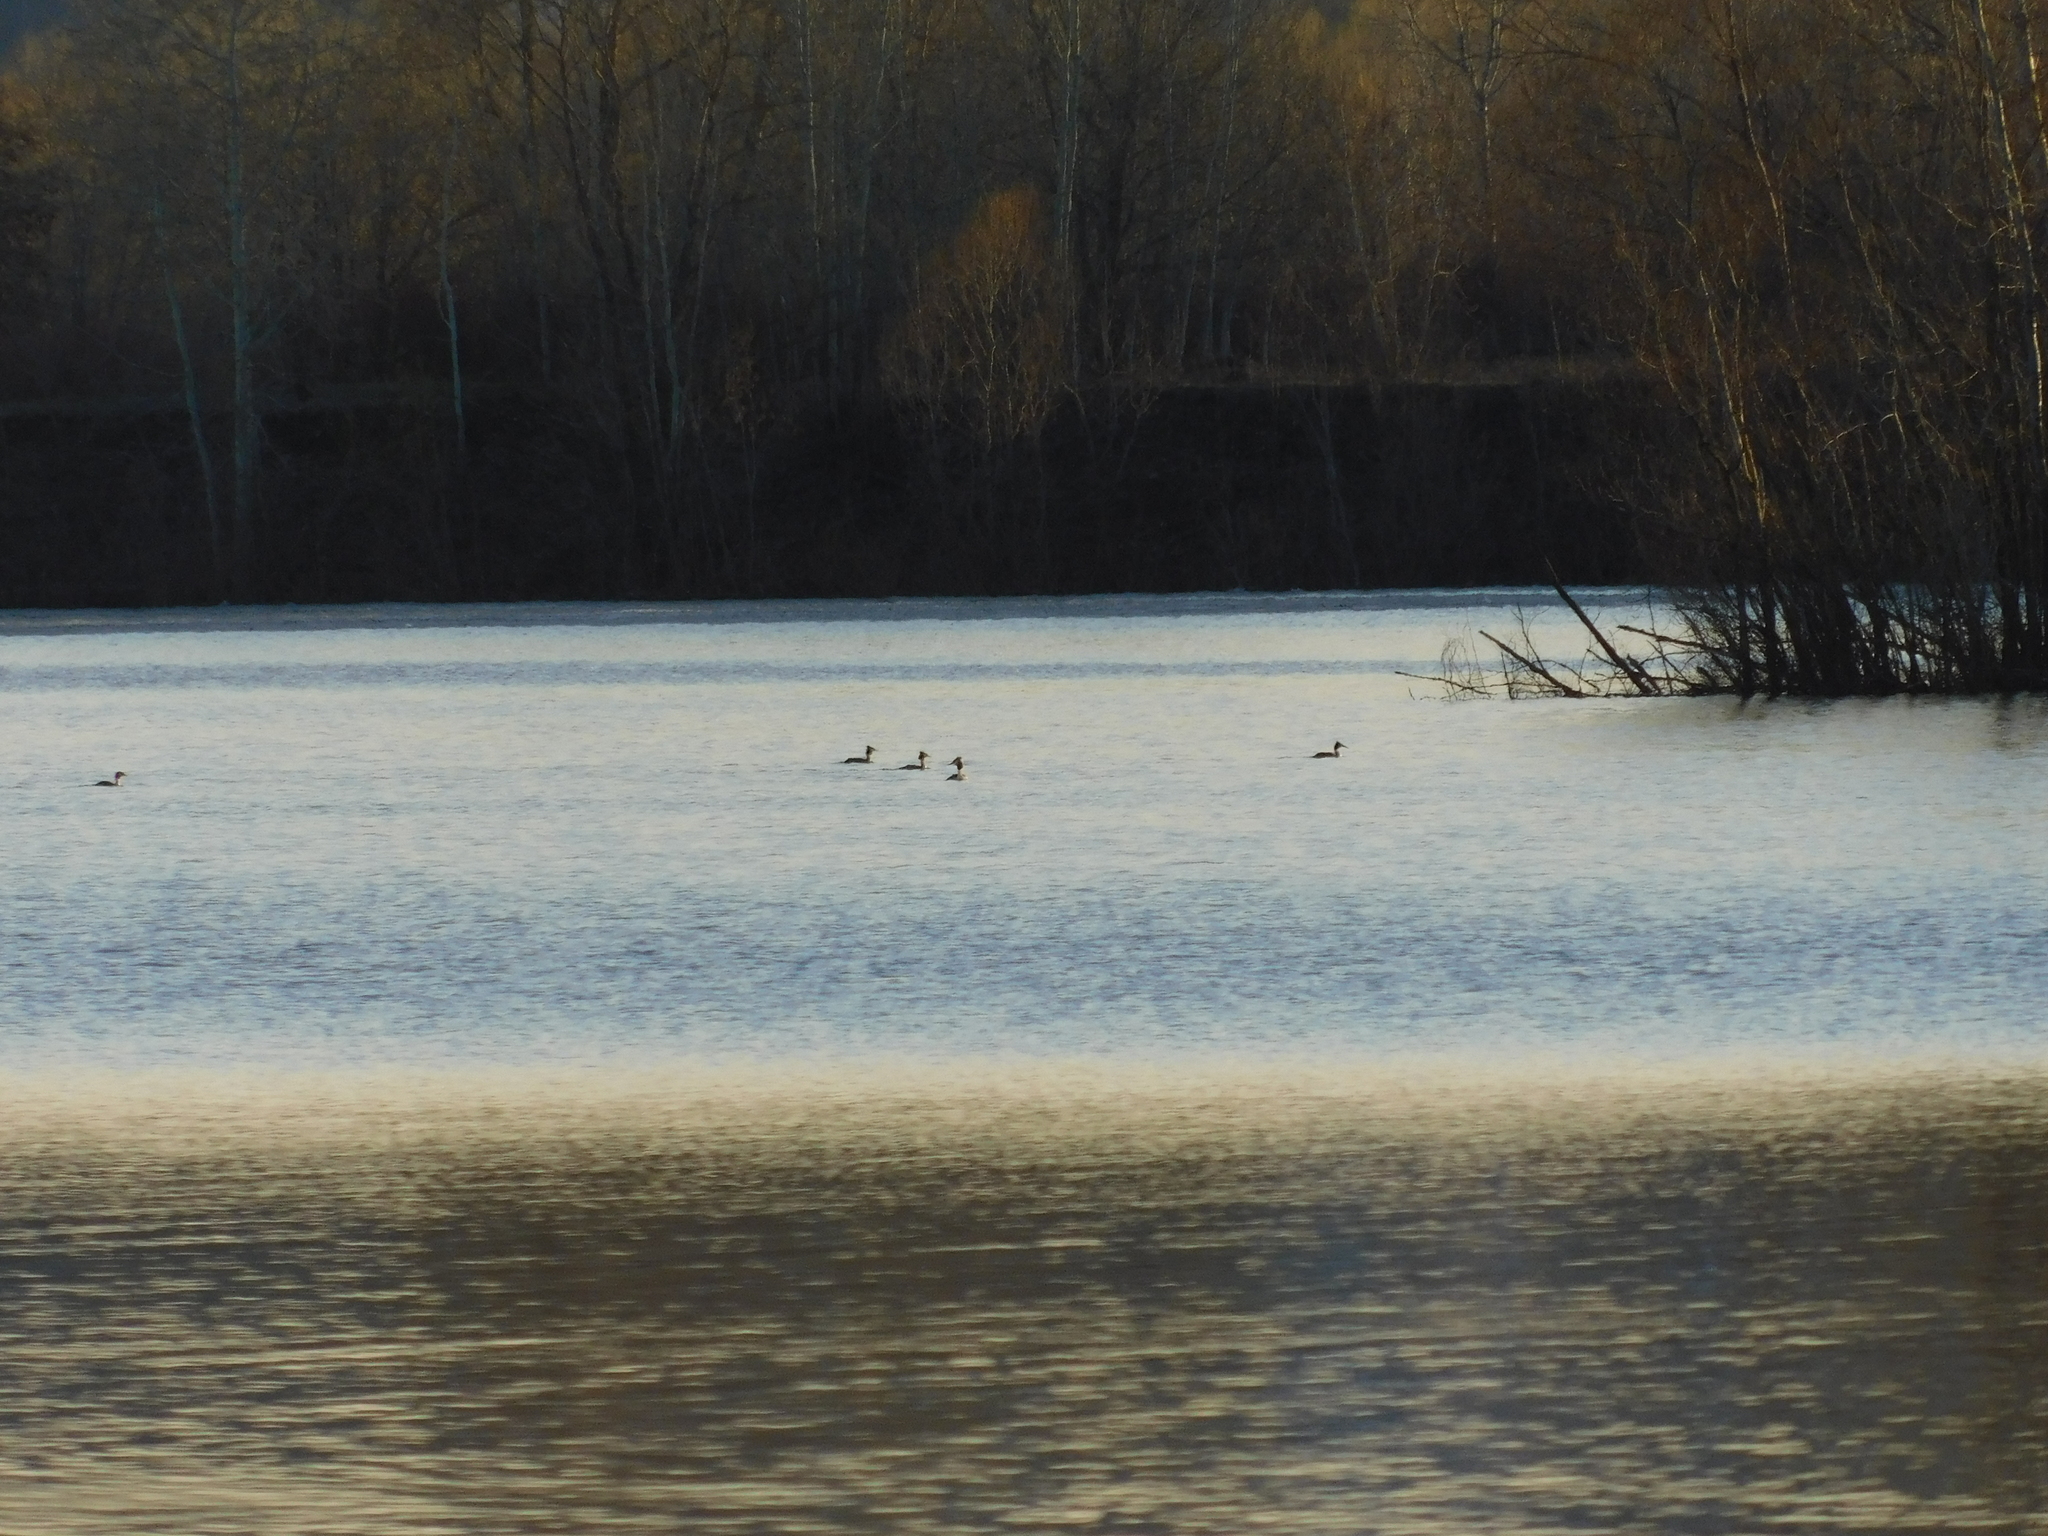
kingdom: Animalia
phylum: Chordata
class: Aves
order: Podicipediformes
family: Podicipedidae
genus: Podiceps
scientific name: Podiceps cristatus
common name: Great crested grebe
